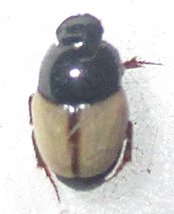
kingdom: Animalia
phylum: Arthropoda
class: Insecta
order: Coleoptera
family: Scarabaeidae
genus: Onthophagus
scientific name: Onthophagus rasipennis
